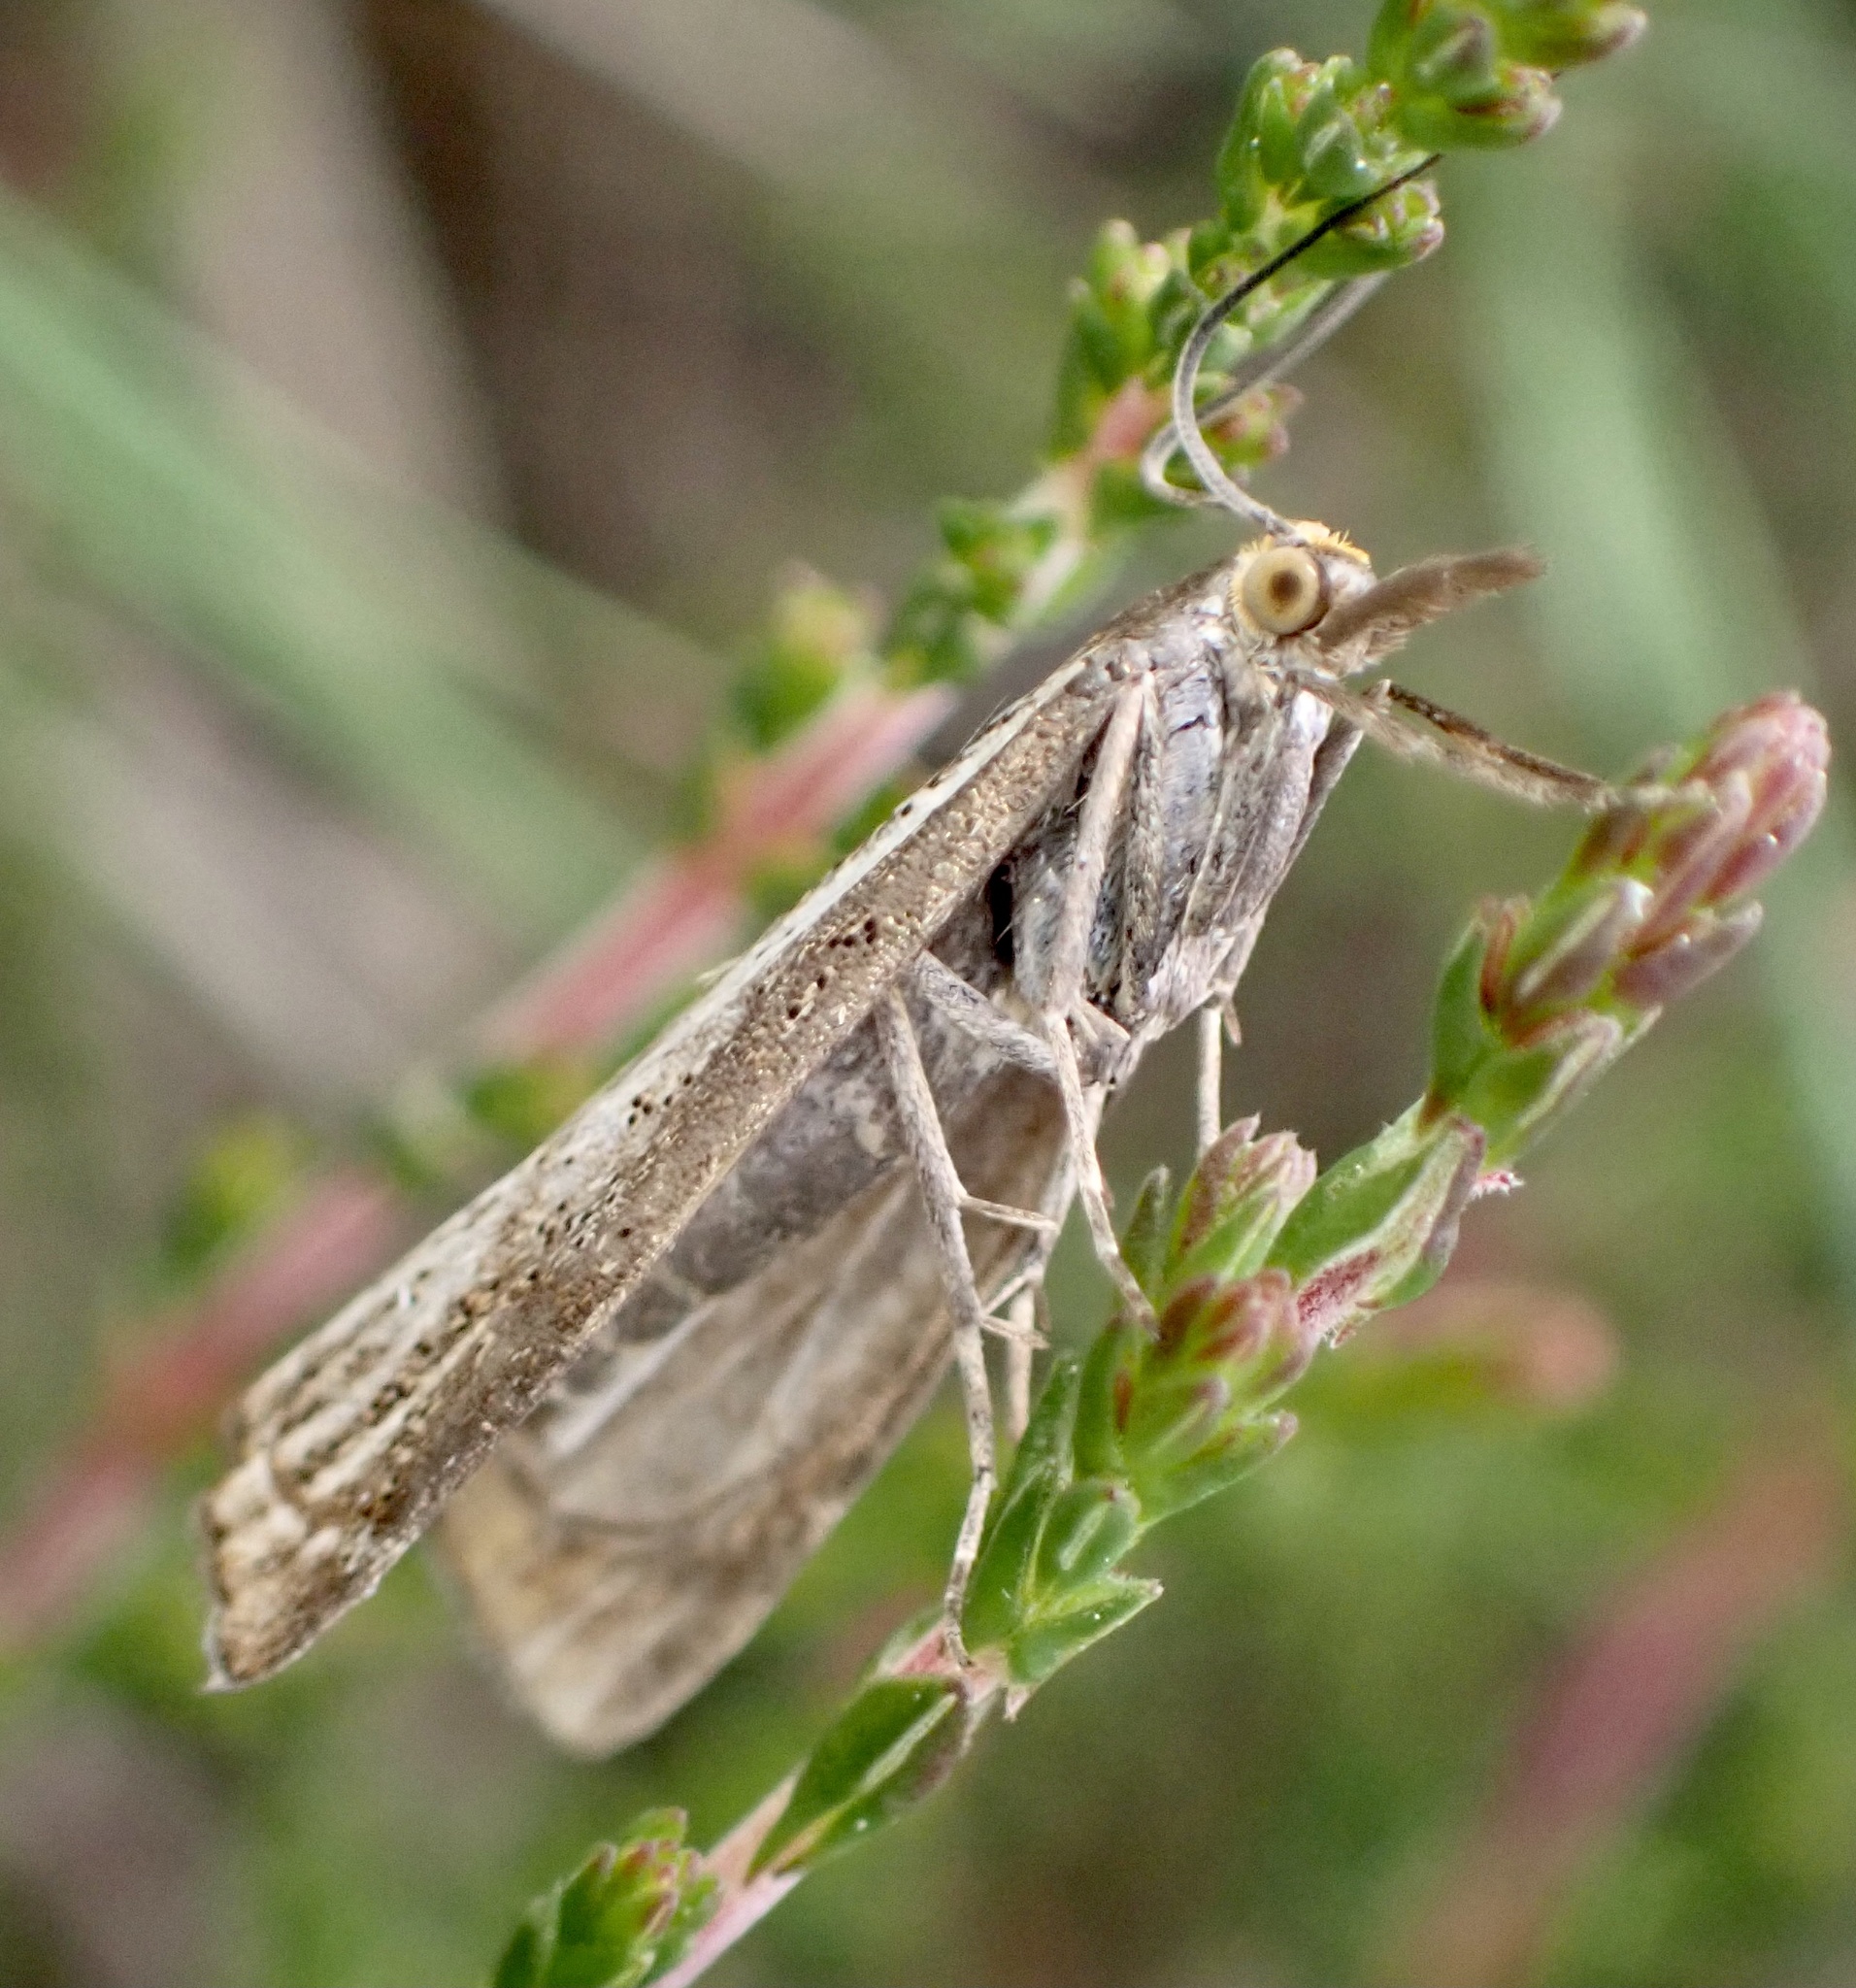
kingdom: Animalia
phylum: Arthropoda
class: Insecta
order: Lepidoptera
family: Crambidae
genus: Thisanotia
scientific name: Thisanotia chrysonuchella
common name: Powdered grass-veneer
